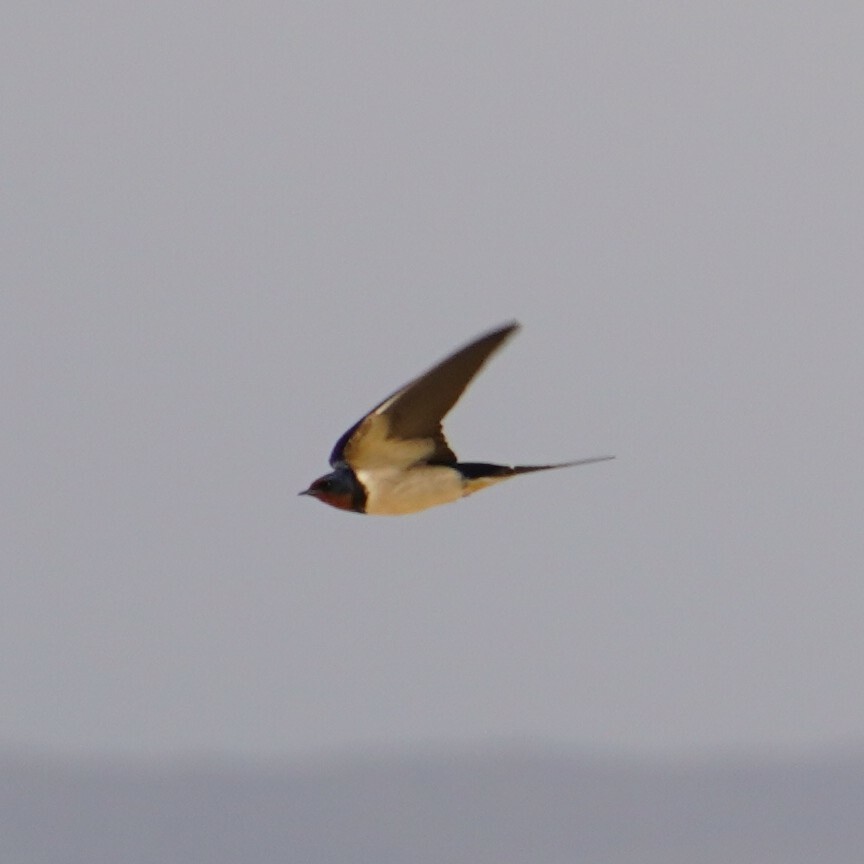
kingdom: Animalia
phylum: Chordata
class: Aves
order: Passeriformes
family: Hirundinidae
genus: Hirundo
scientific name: Hirundo rustica
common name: Barn swallow
